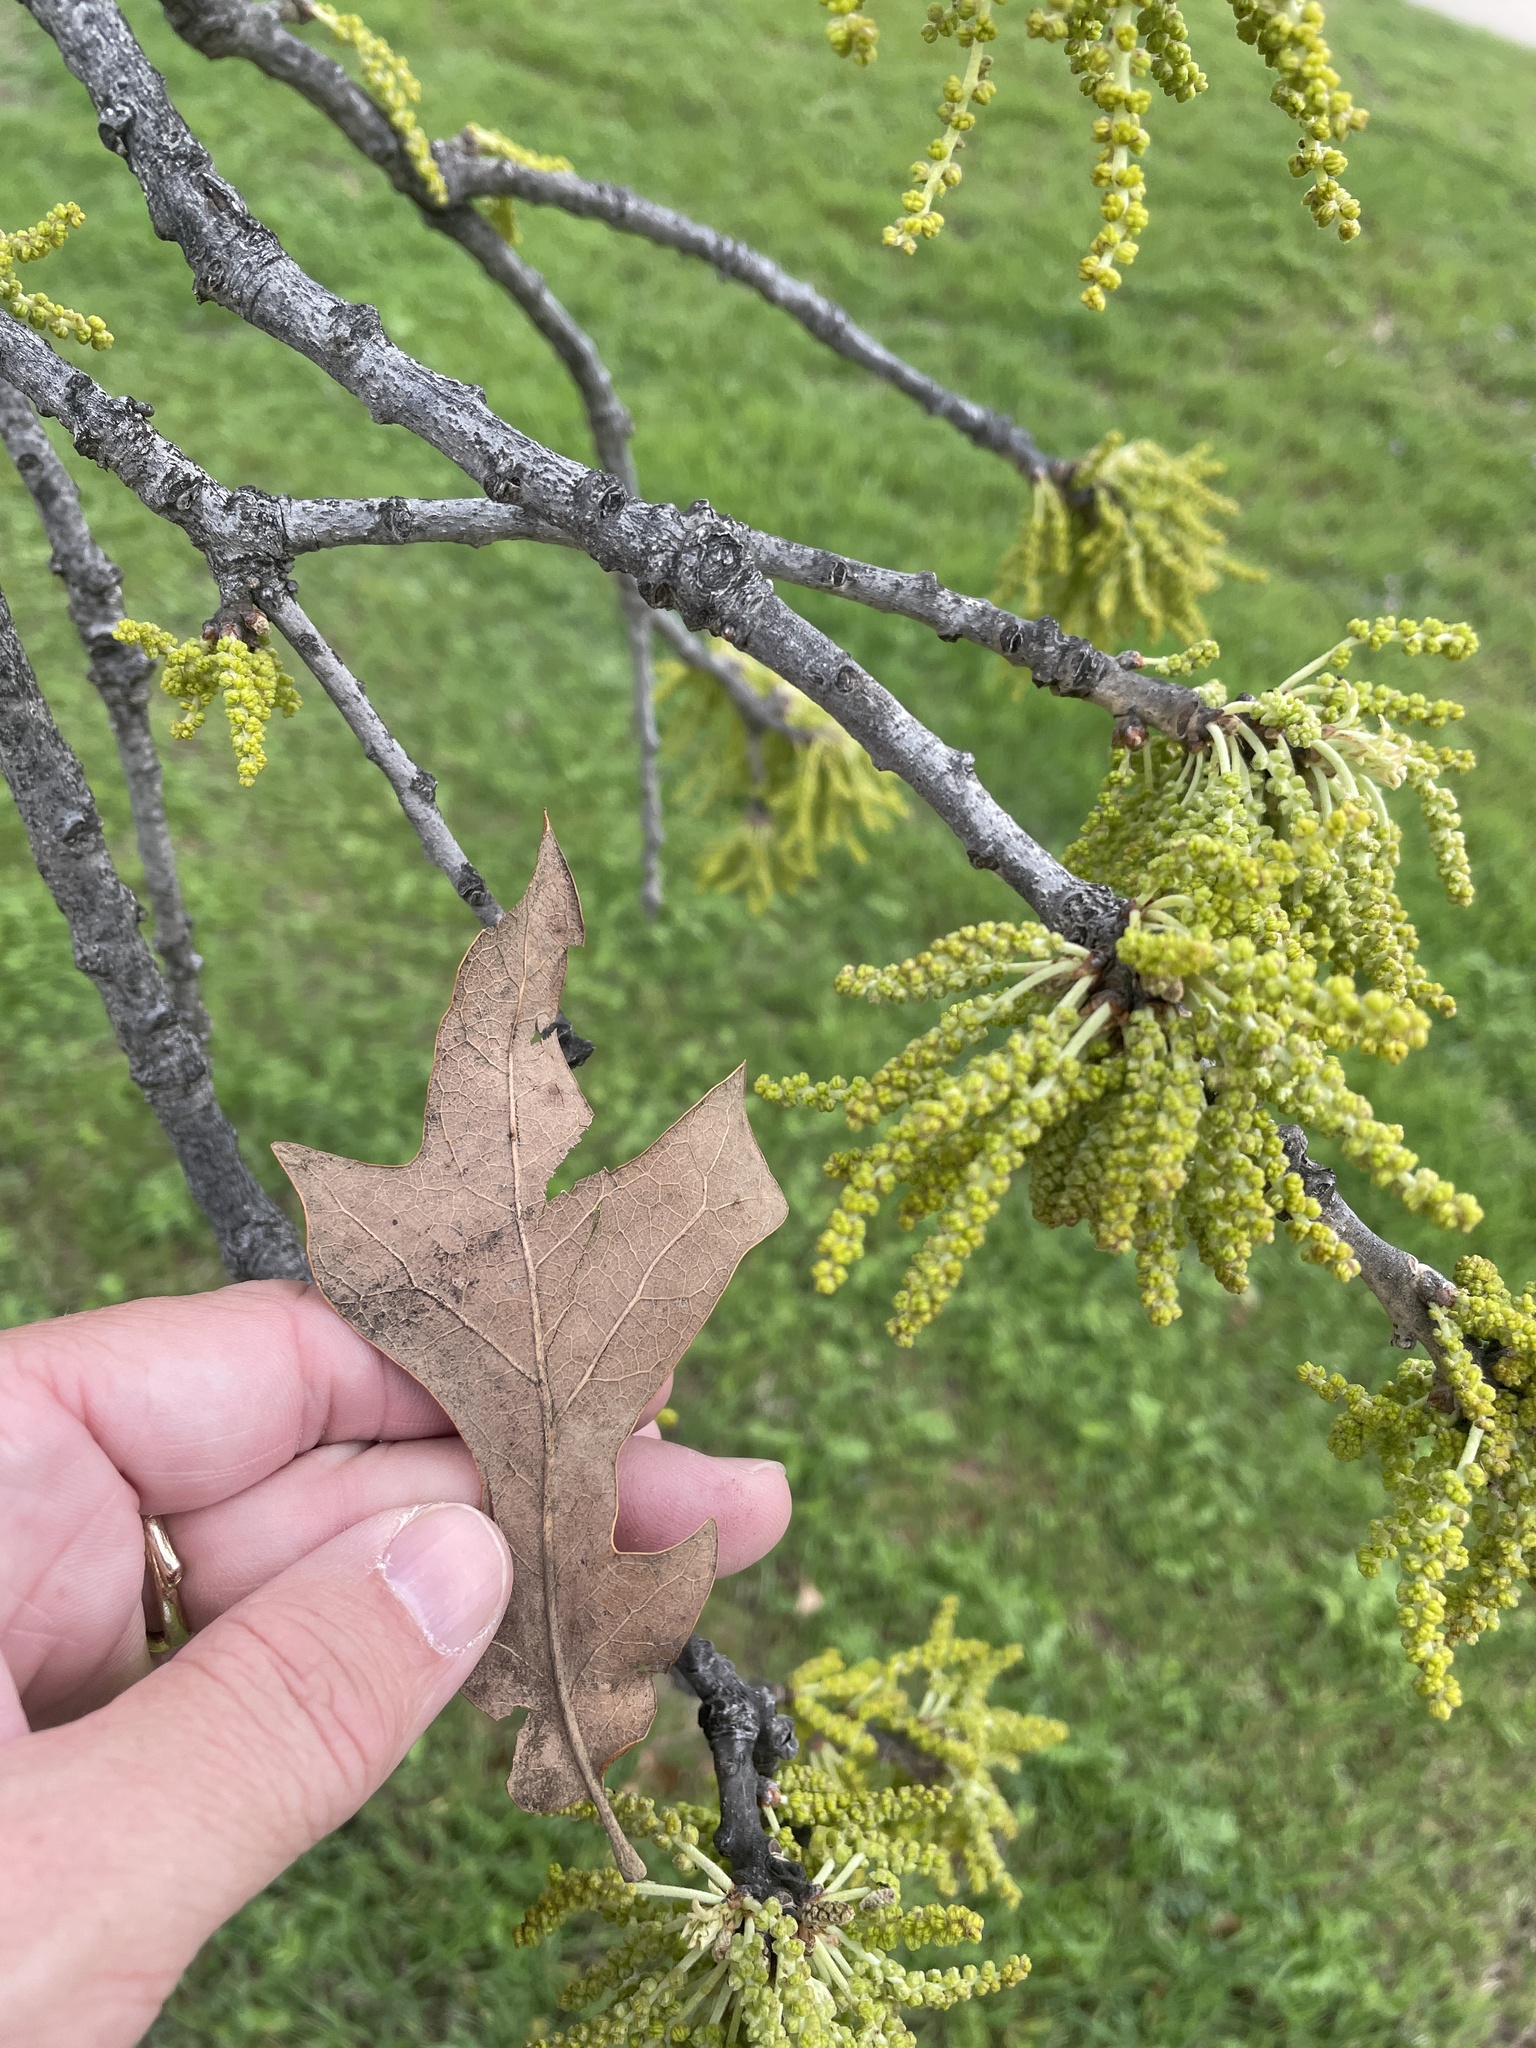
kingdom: Plantae
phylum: Tracheophyta
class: Magnoliopsida
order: Fagales
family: Fagaceae
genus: Quercus
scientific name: Quercus stellata
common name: Post oak
